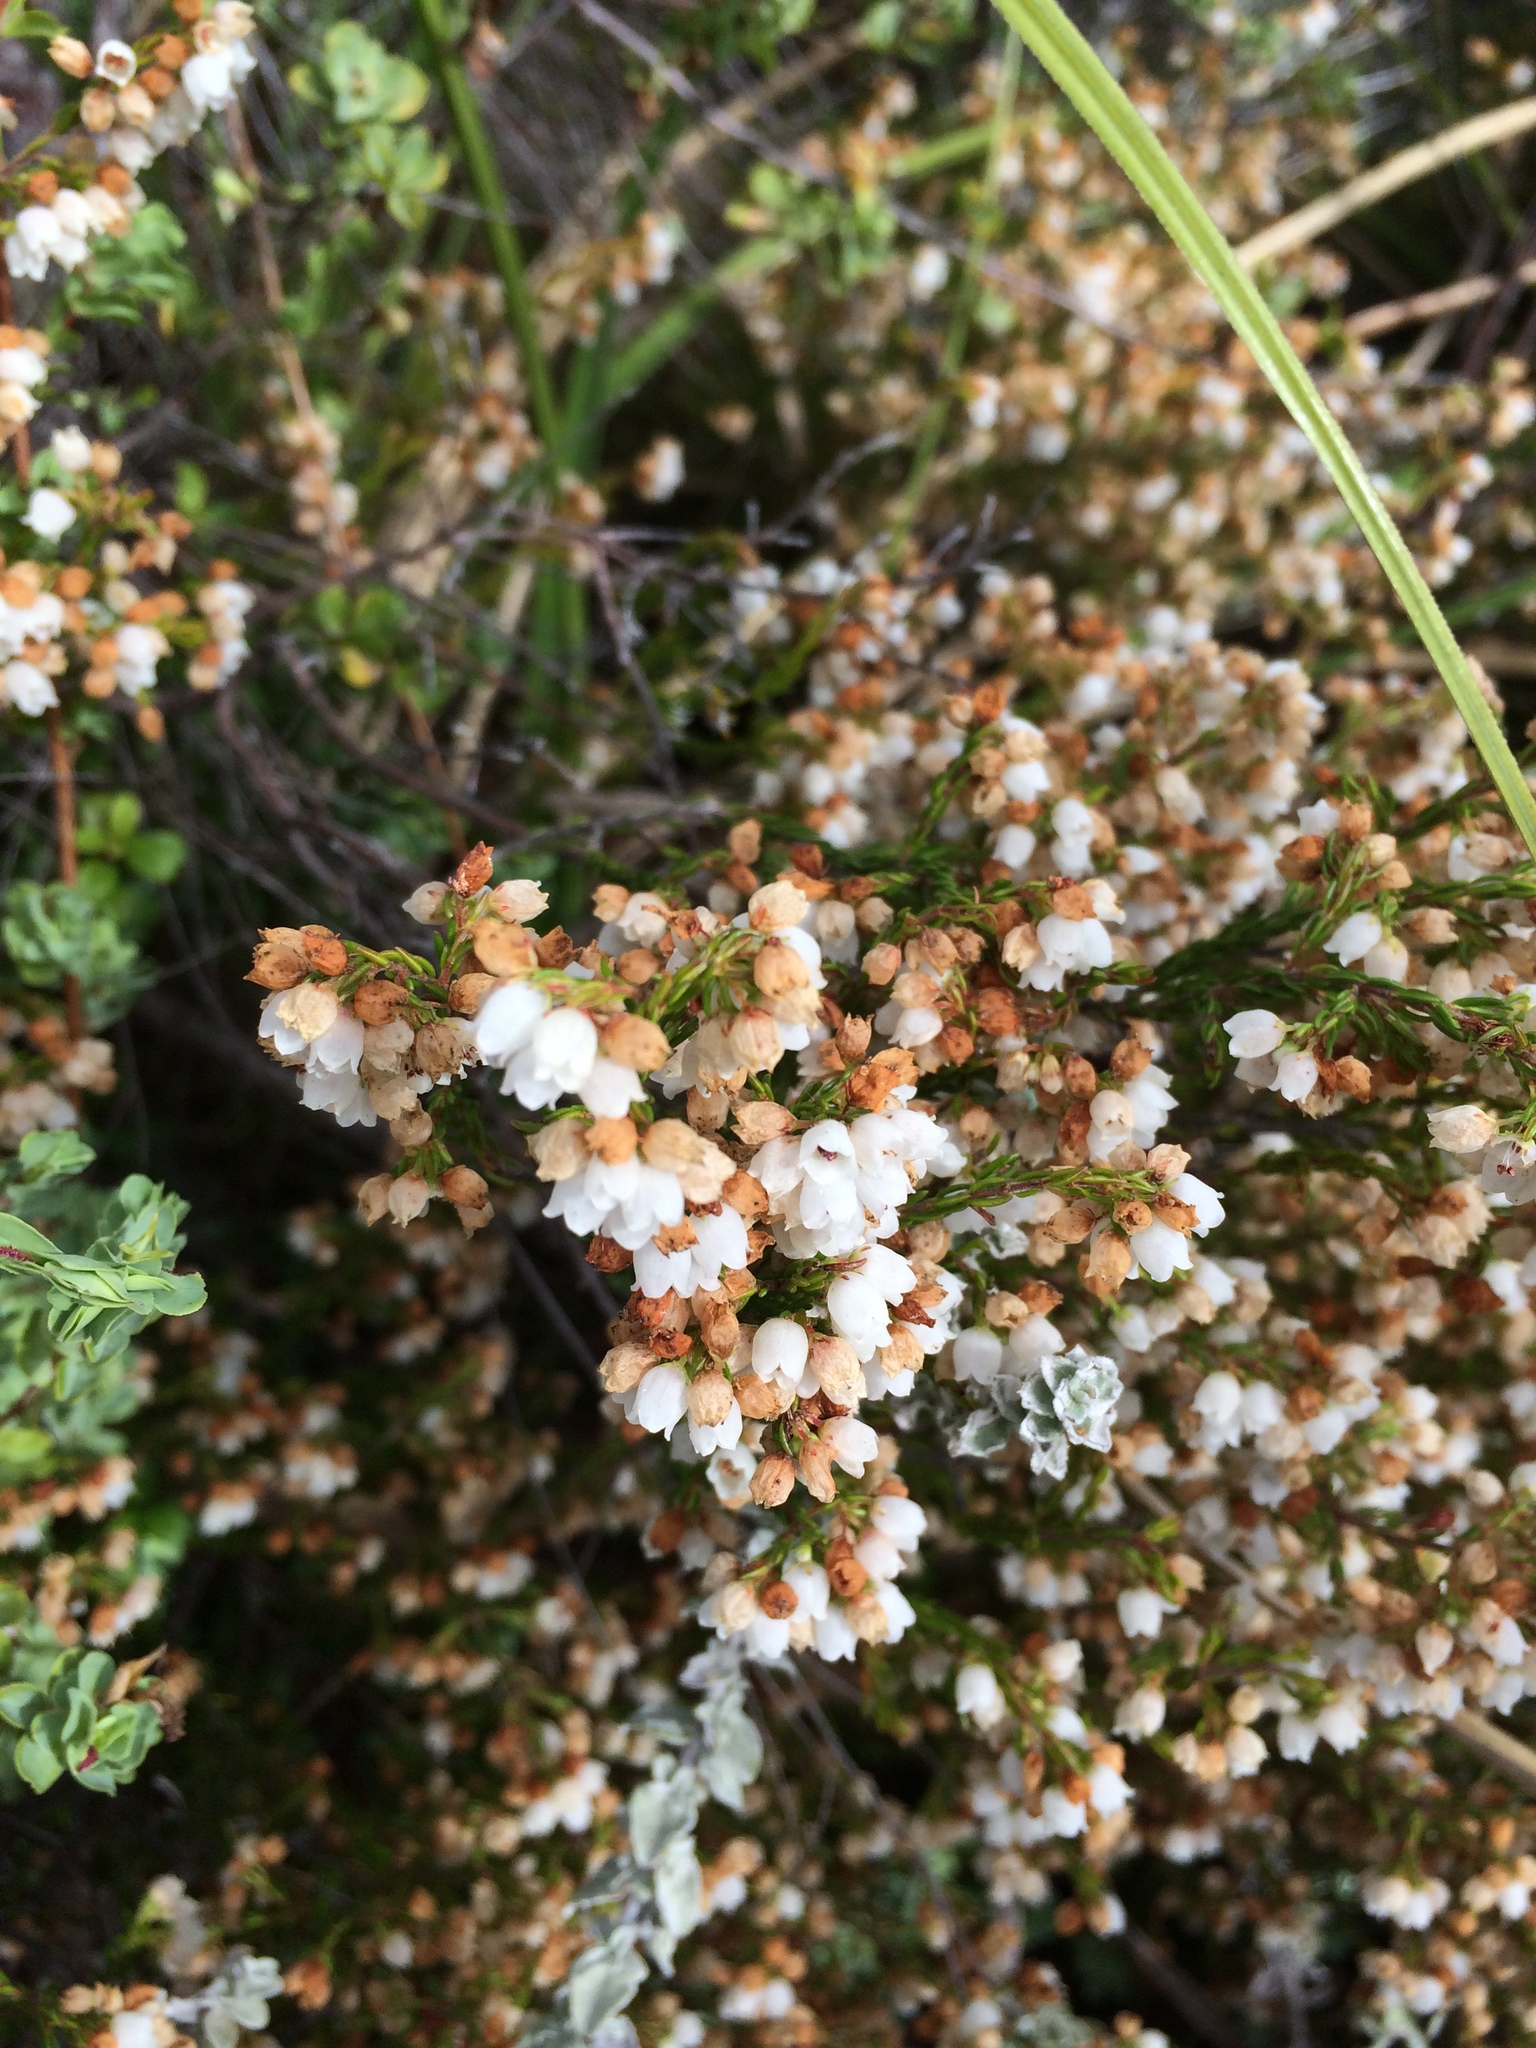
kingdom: Plantae
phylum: Tracheophyta
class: Magnoliopsida
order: Ericales
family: Ericaceae
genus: Erica
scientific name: Erica capensis
